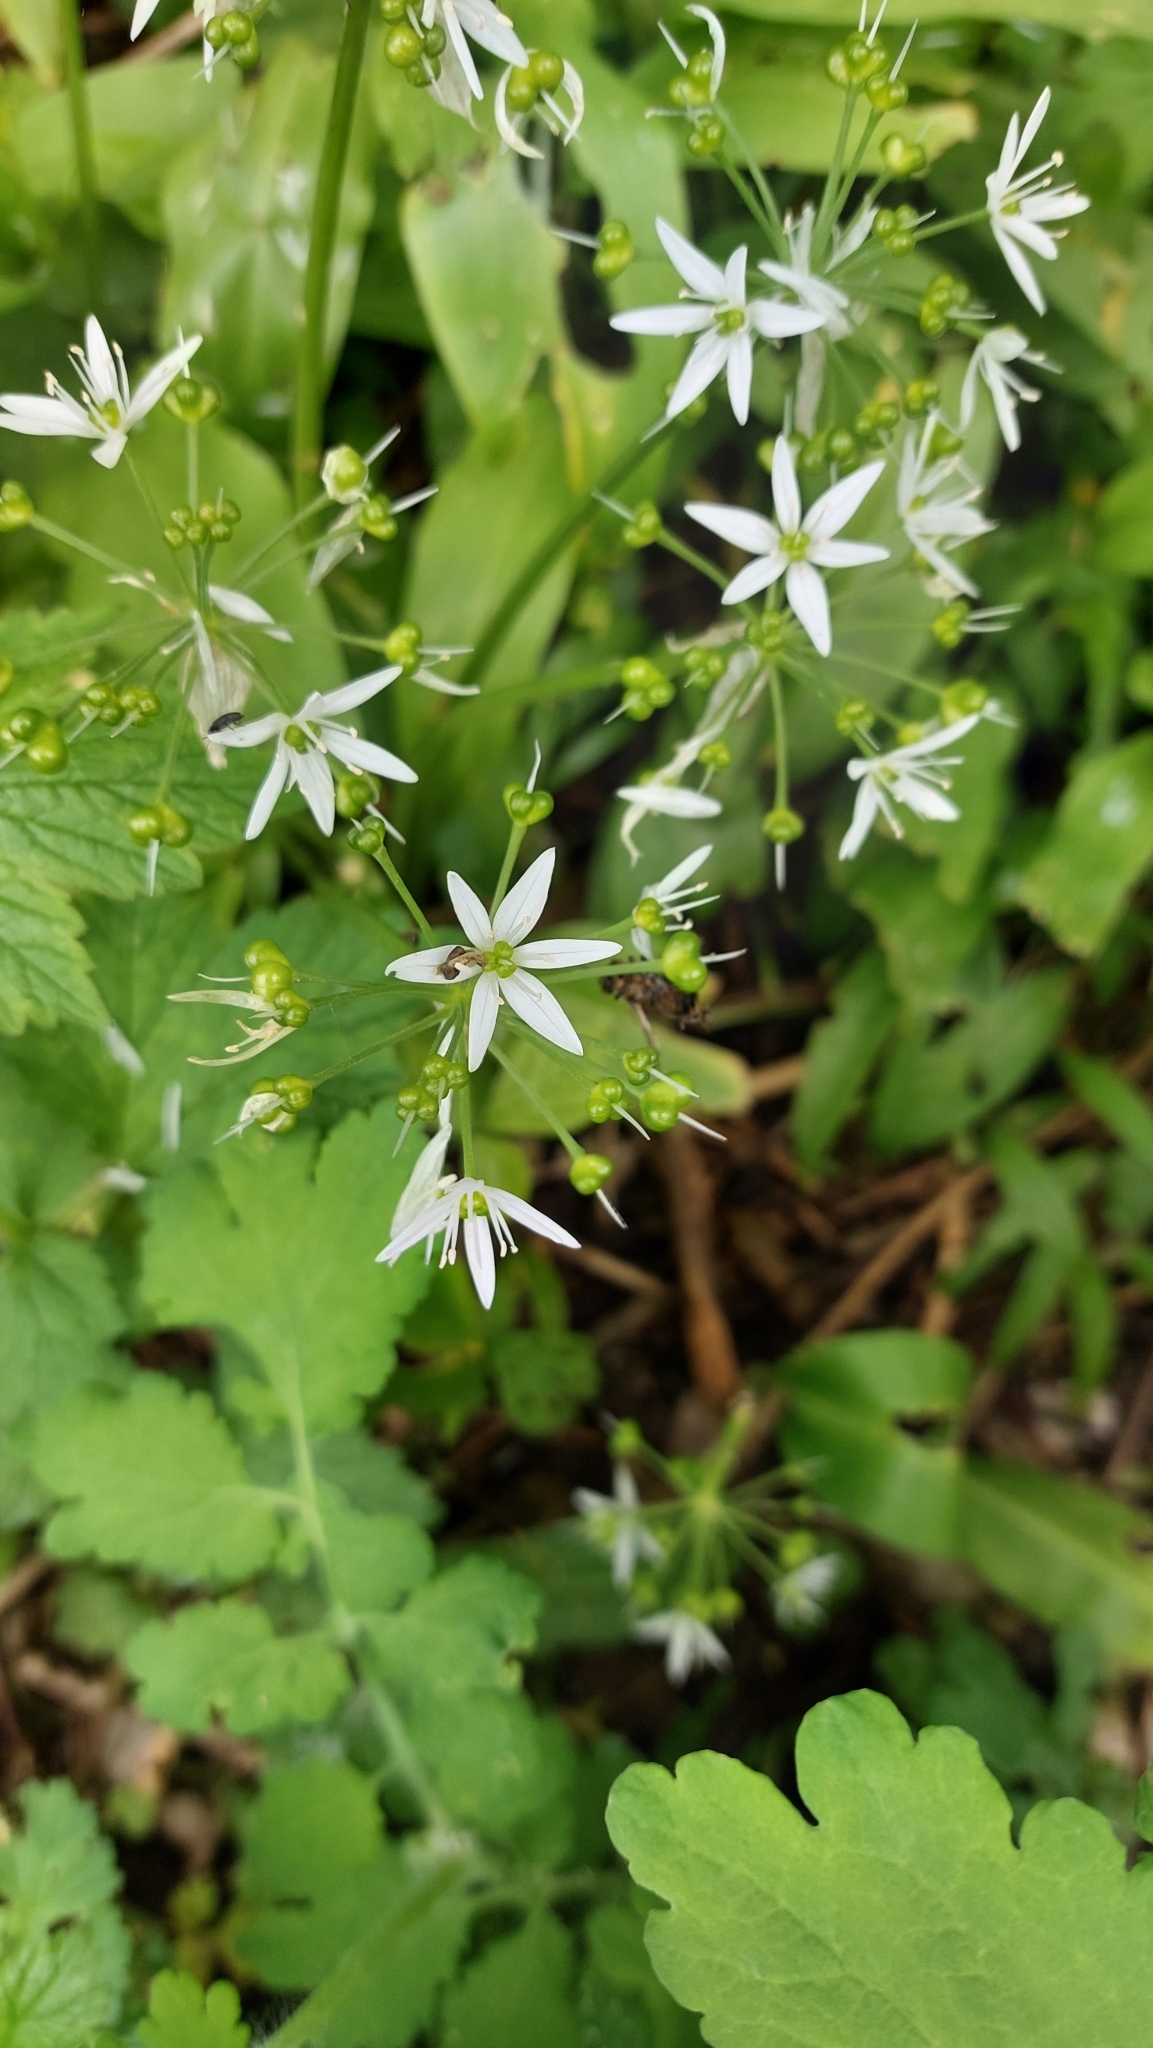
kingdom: Plantae
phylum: Tracheophyta
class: Liliopsida
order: Asparagales
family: Amaryllidaceae
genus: Allium
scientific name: Allium ursinum
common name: Ramsons
